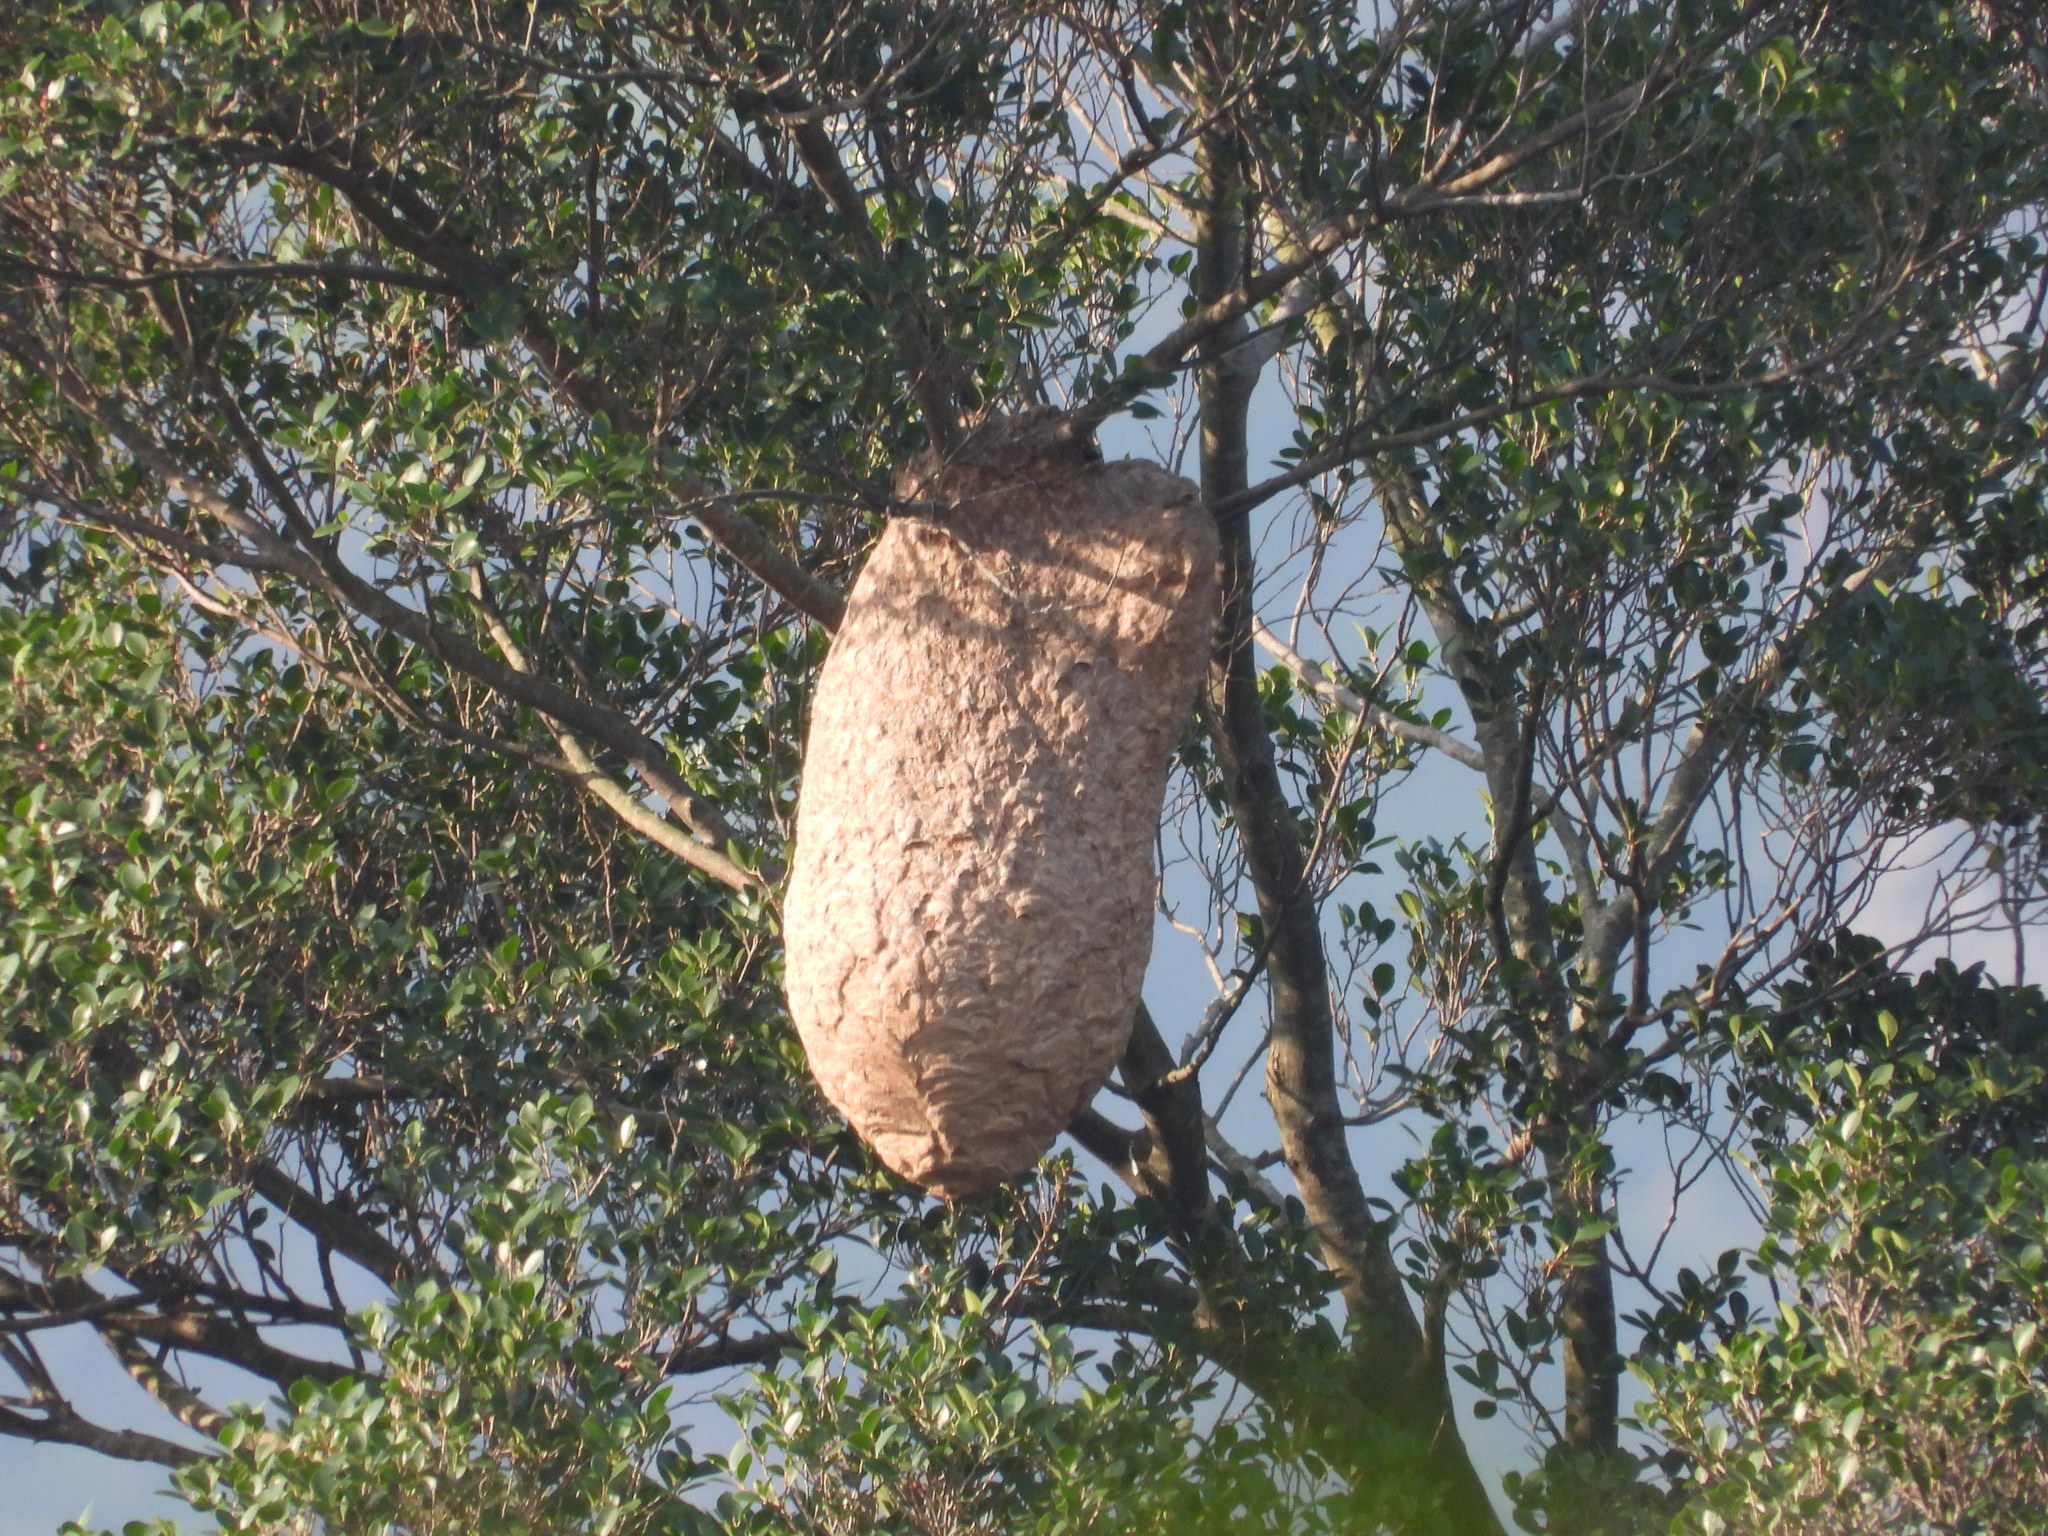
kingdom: Animalia
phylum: Arthropoda
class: Insecta
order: Hymenoptera
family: Vespidae
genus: Vespa
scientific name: Vespa velutina
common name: Asian hornet
